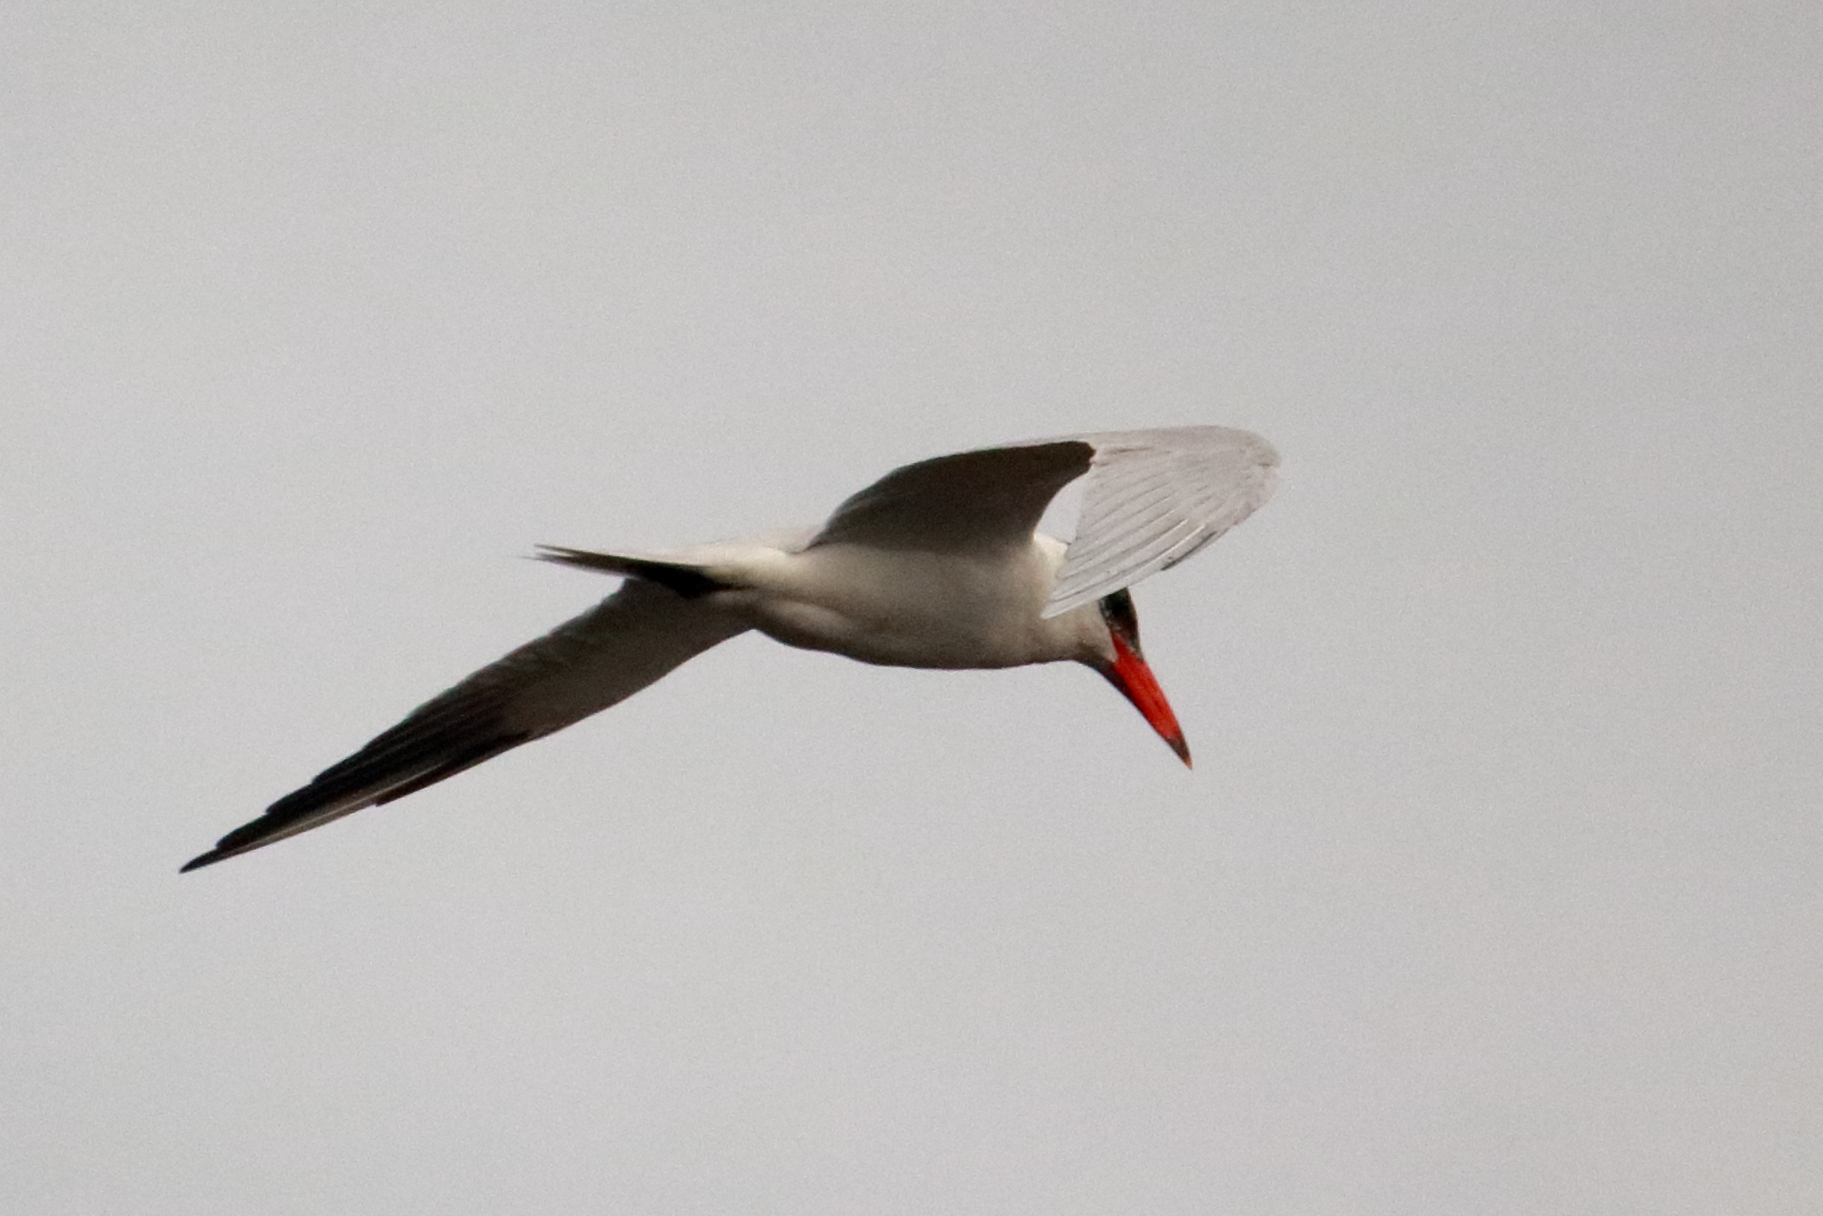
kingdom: Animalia
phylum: Chordata
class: Aves
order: Charadriiformes
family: Laridae
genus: Hydroprogne
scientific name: Hydroprogne caspia
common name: Caspian tern
